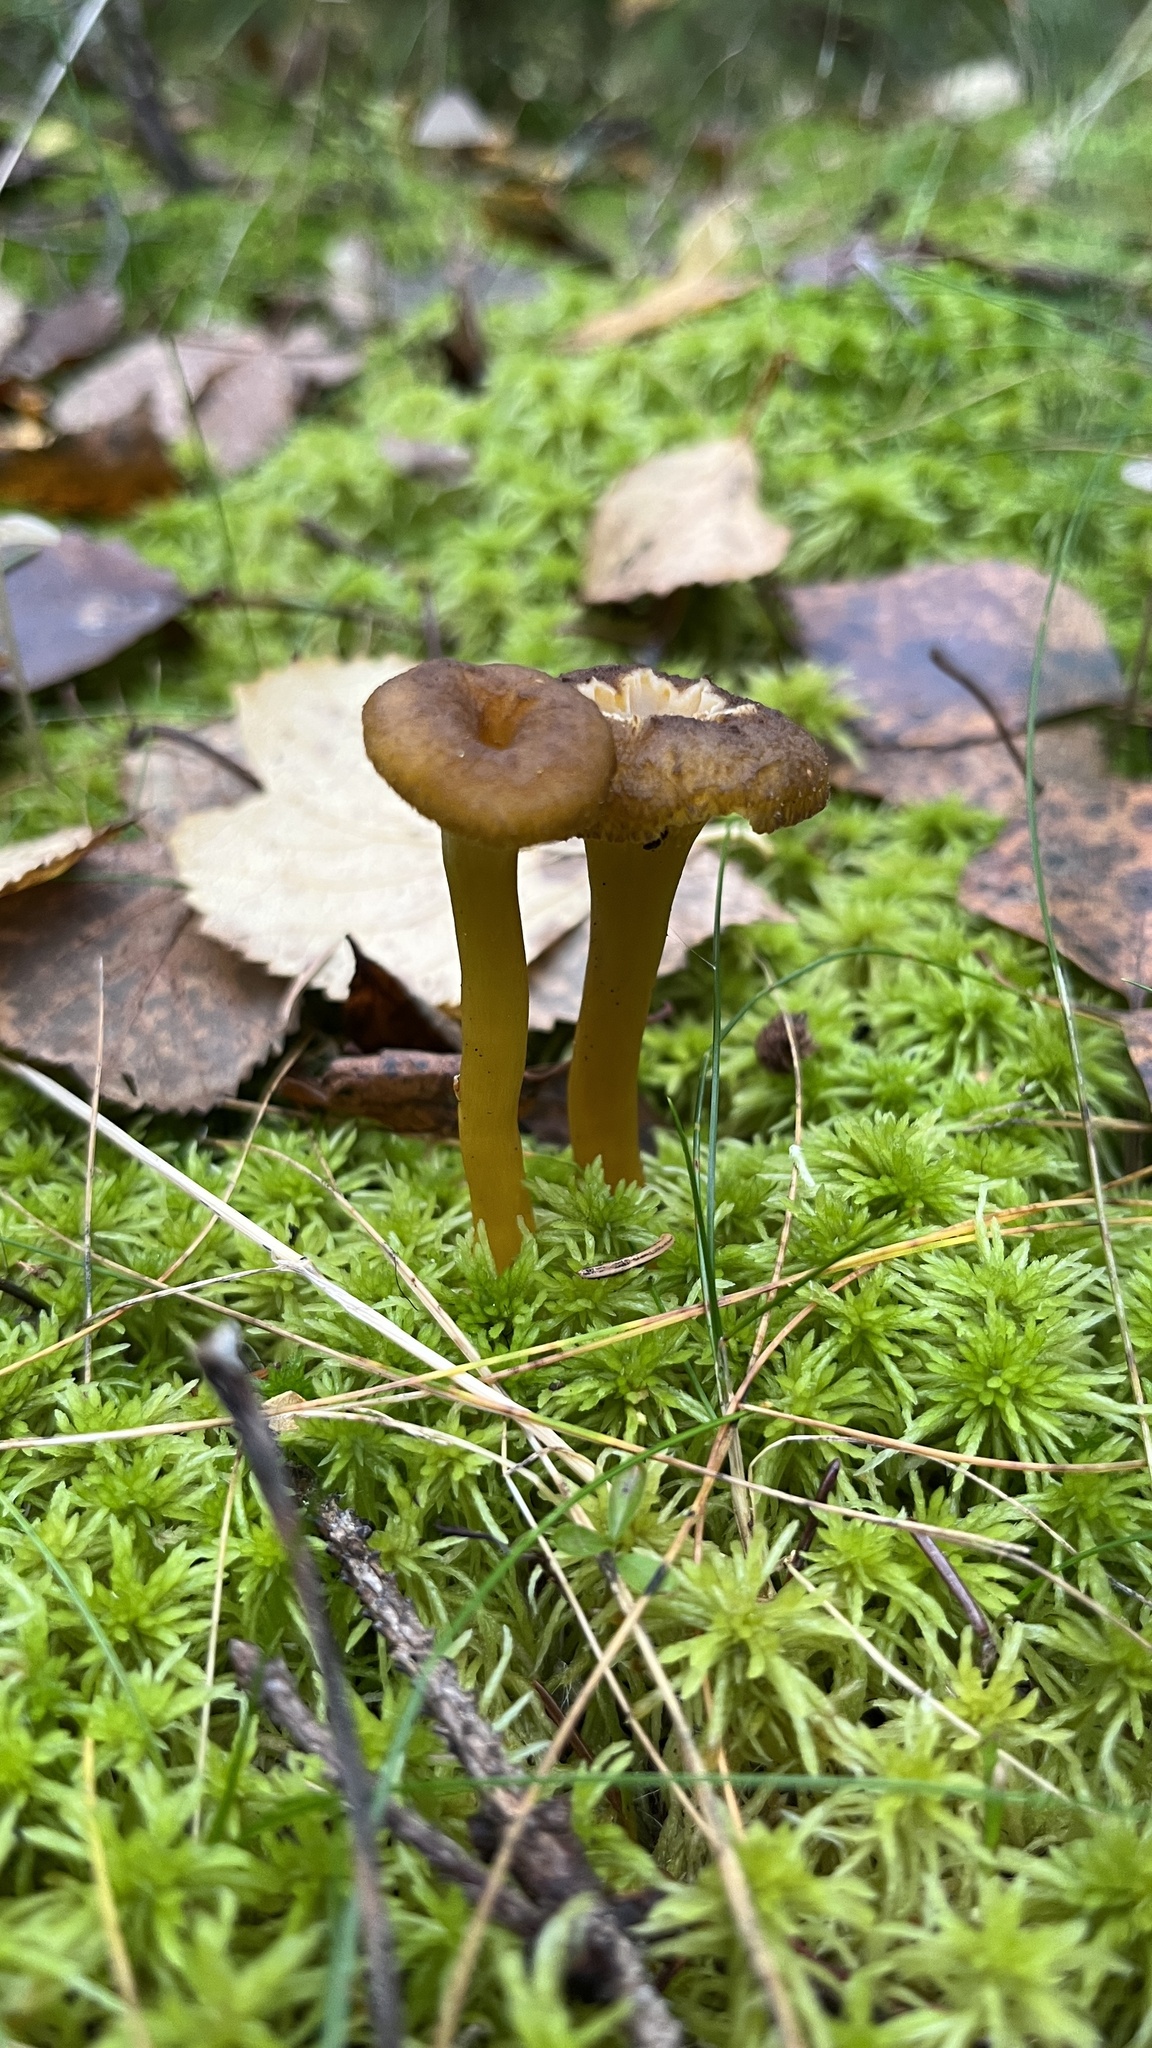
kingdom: Fungi
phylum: Basidiomycota
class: Agaricomycetes
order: Cantharellales
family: Hydnaceae
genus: Craterellus
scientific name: Craterellus tubaeformis
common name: Yellowfoot
